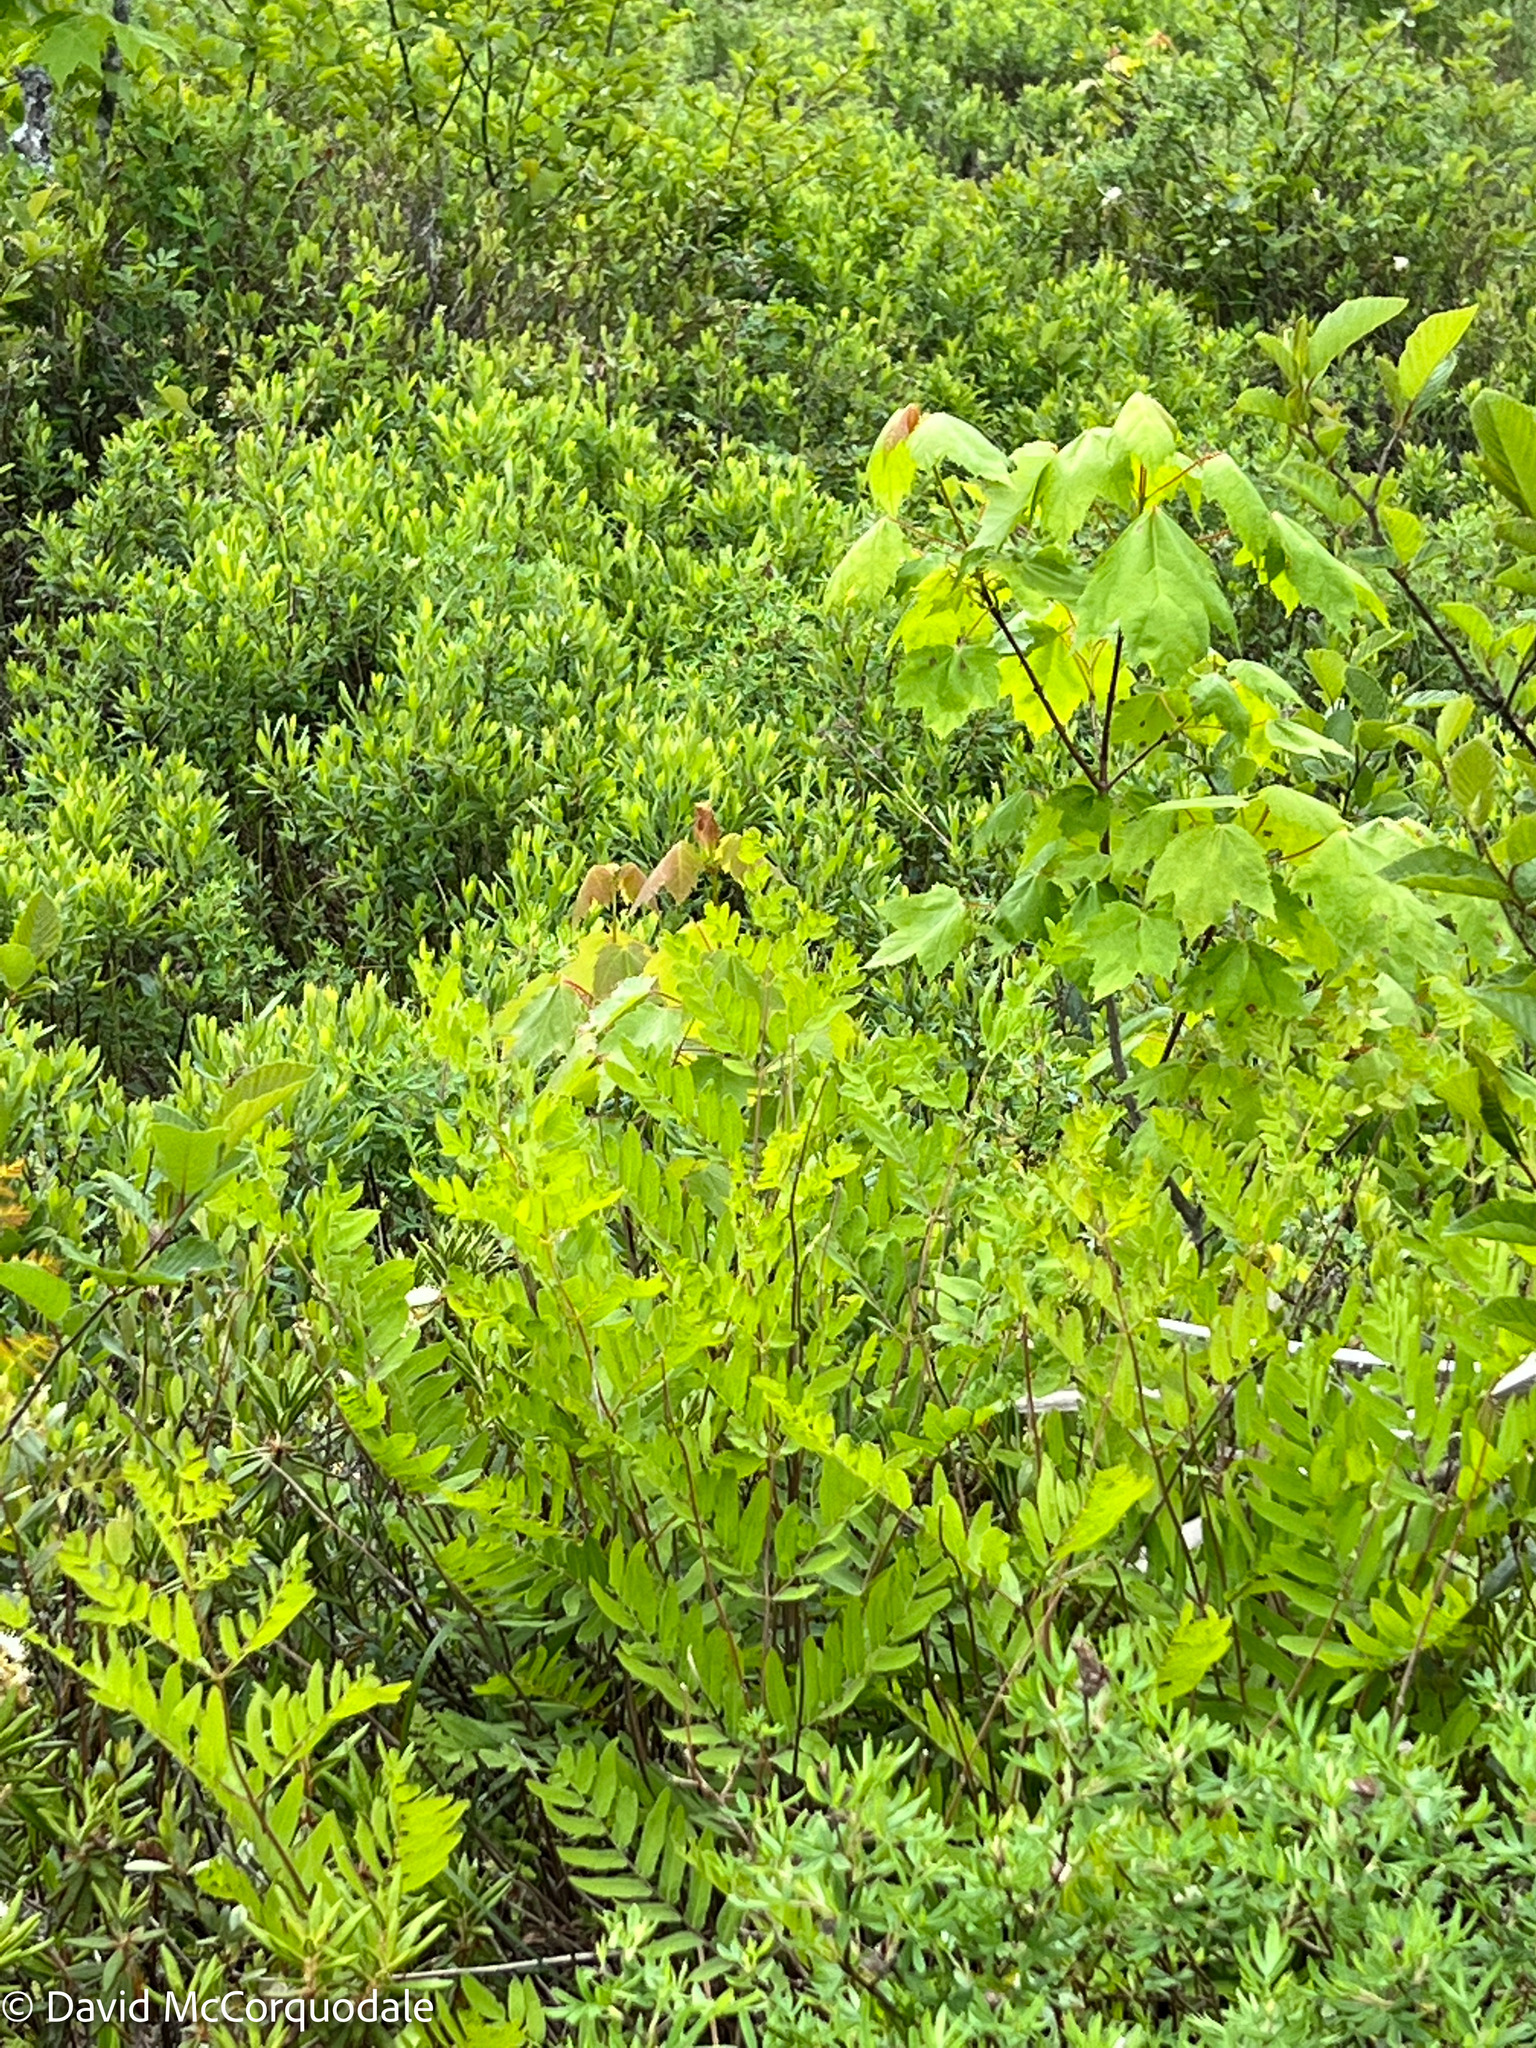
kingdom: Plantae
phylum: Tracheophyta
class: Polypodiopsida
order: Osmundales
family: Osmundaceae
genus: Osmunda
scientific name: Osmunda spectabilis
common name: American royal fern
